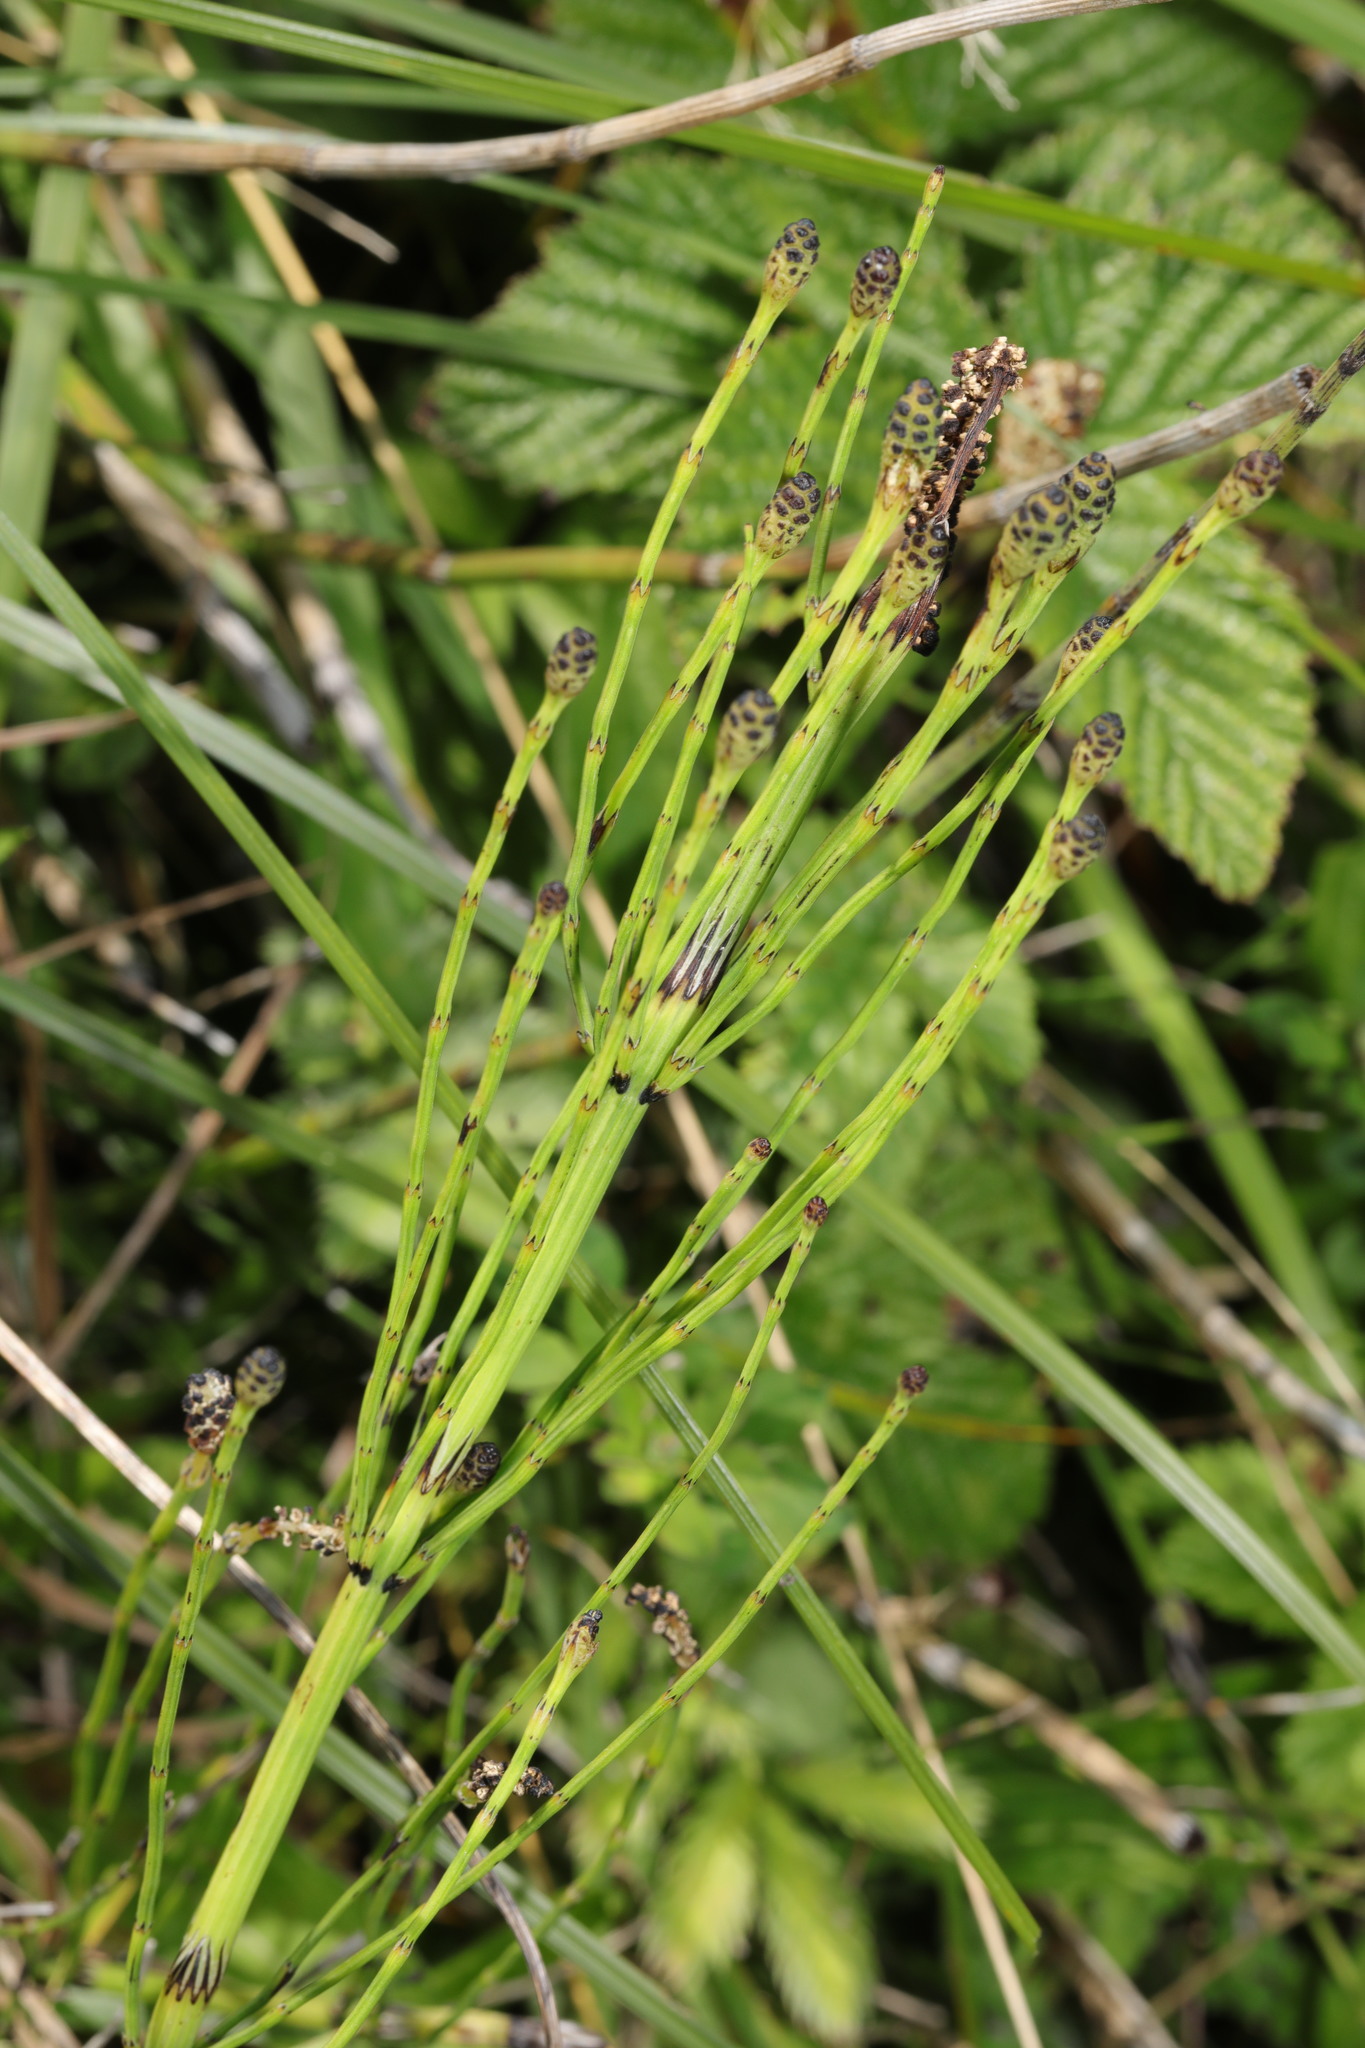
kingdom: Plantae
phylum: Tracheophyta
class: Polypodiopsida
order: Equisetales
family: Equisetaceae
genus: Equisetum
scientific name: Equisetum palustre
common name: Marsh horsetail
